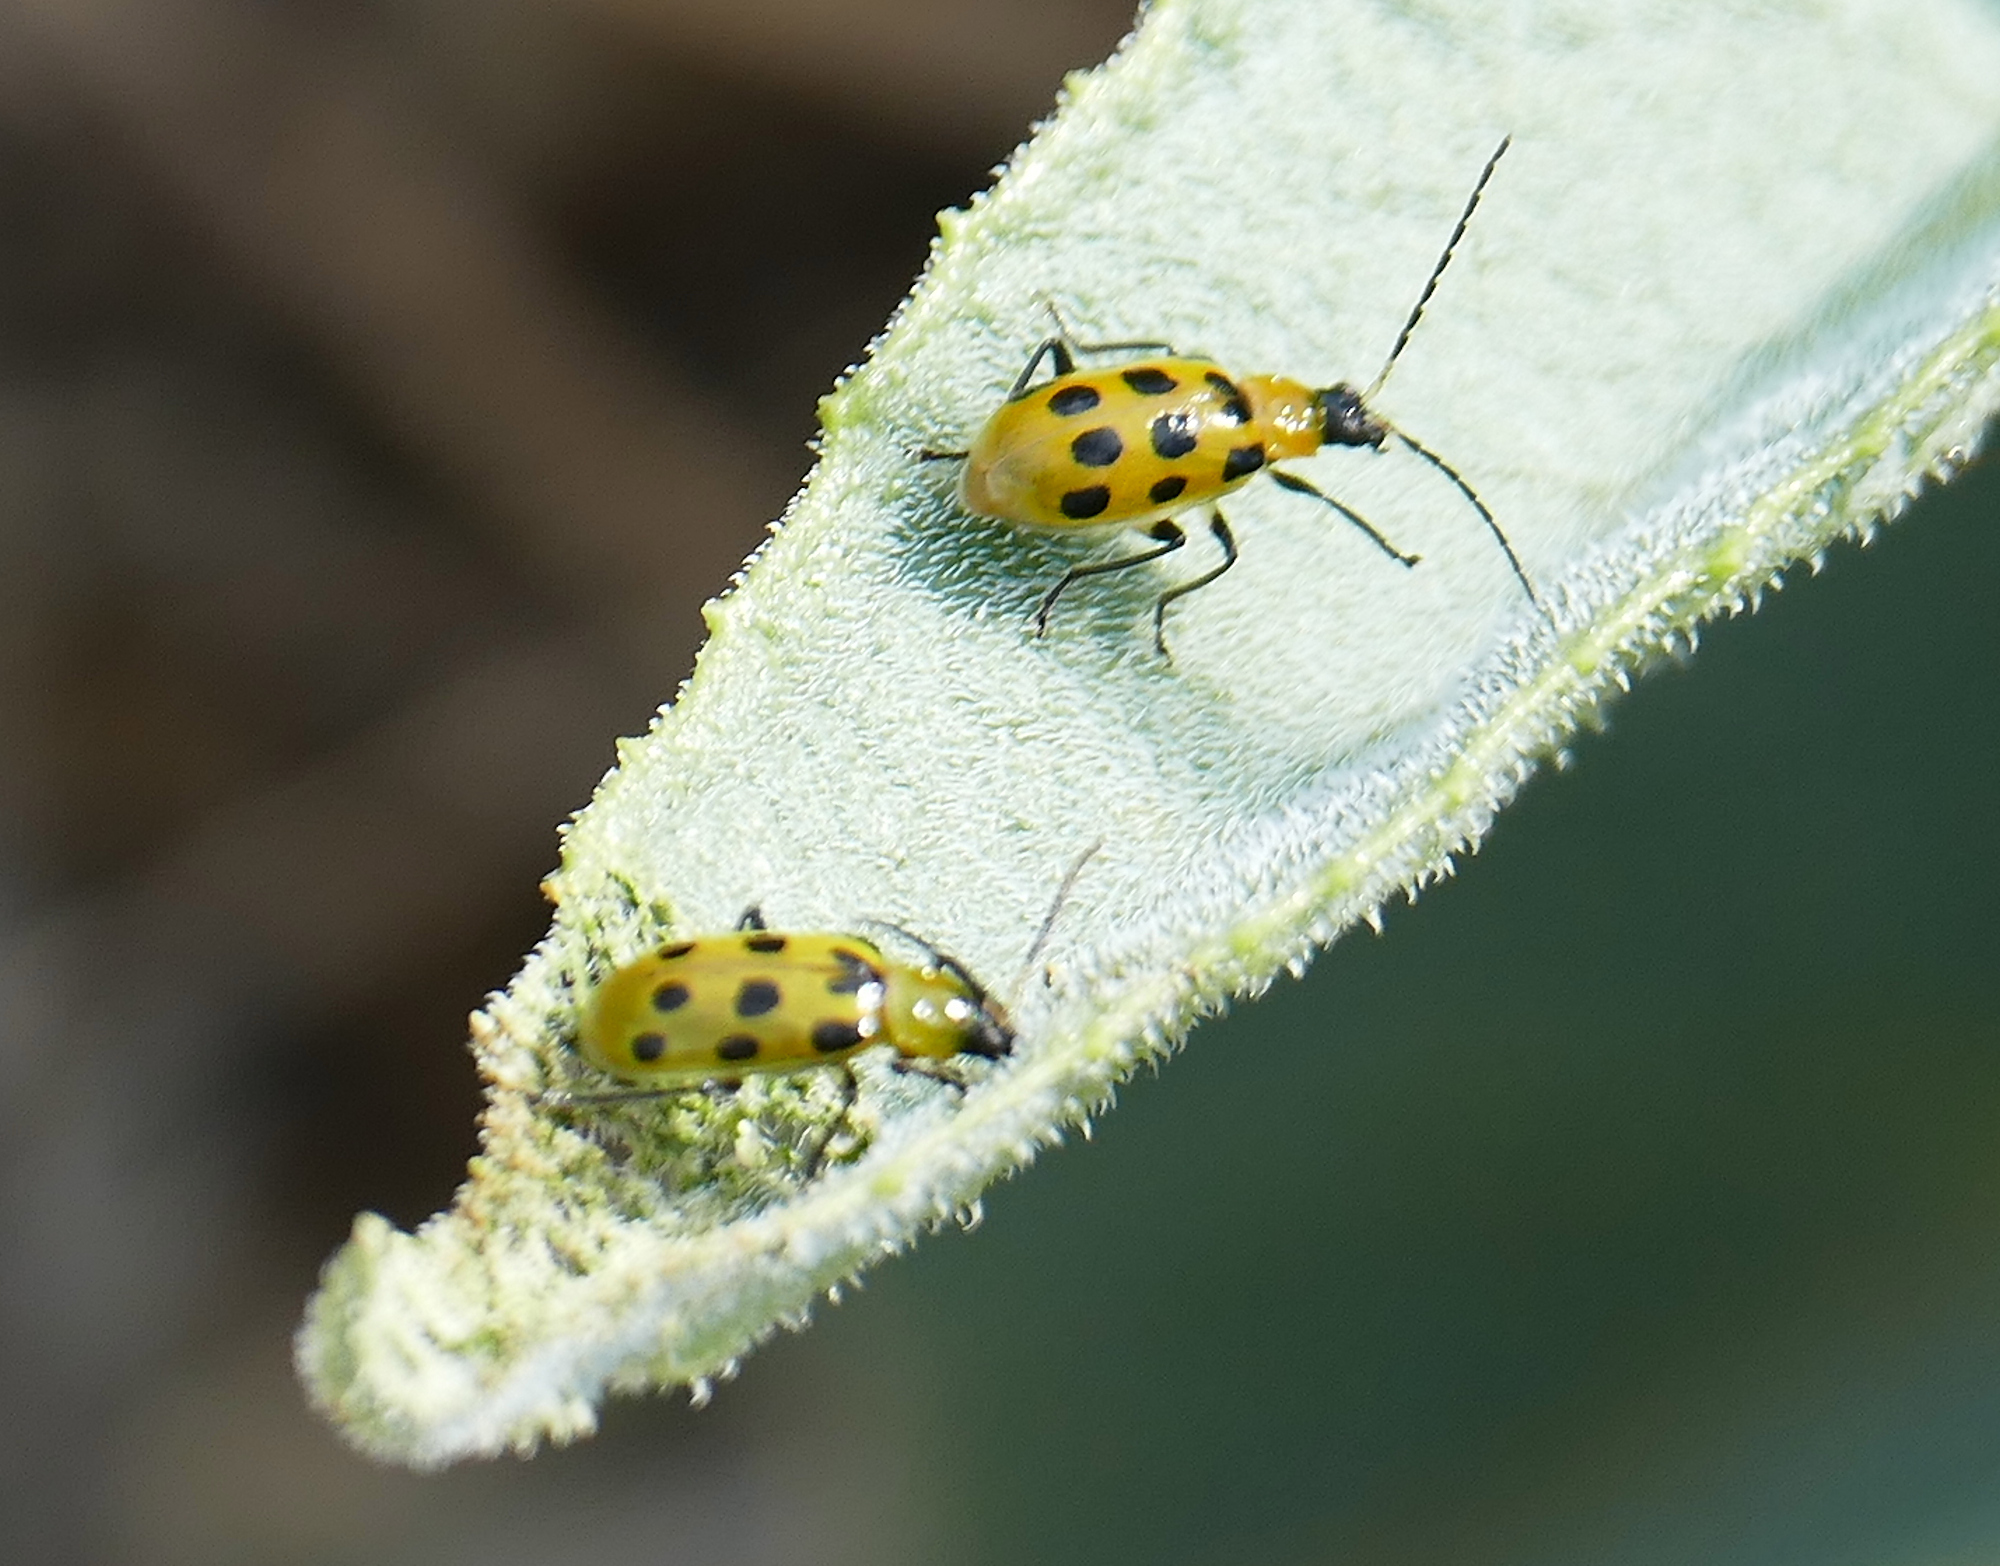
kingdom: Animalia
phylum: Arthropoda
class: Insecta
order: Coleoptera
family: Chrysomelidae
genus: Diabrotica
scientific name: Diabrotica undecimpunctata
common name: Spotted cucumber beetle
